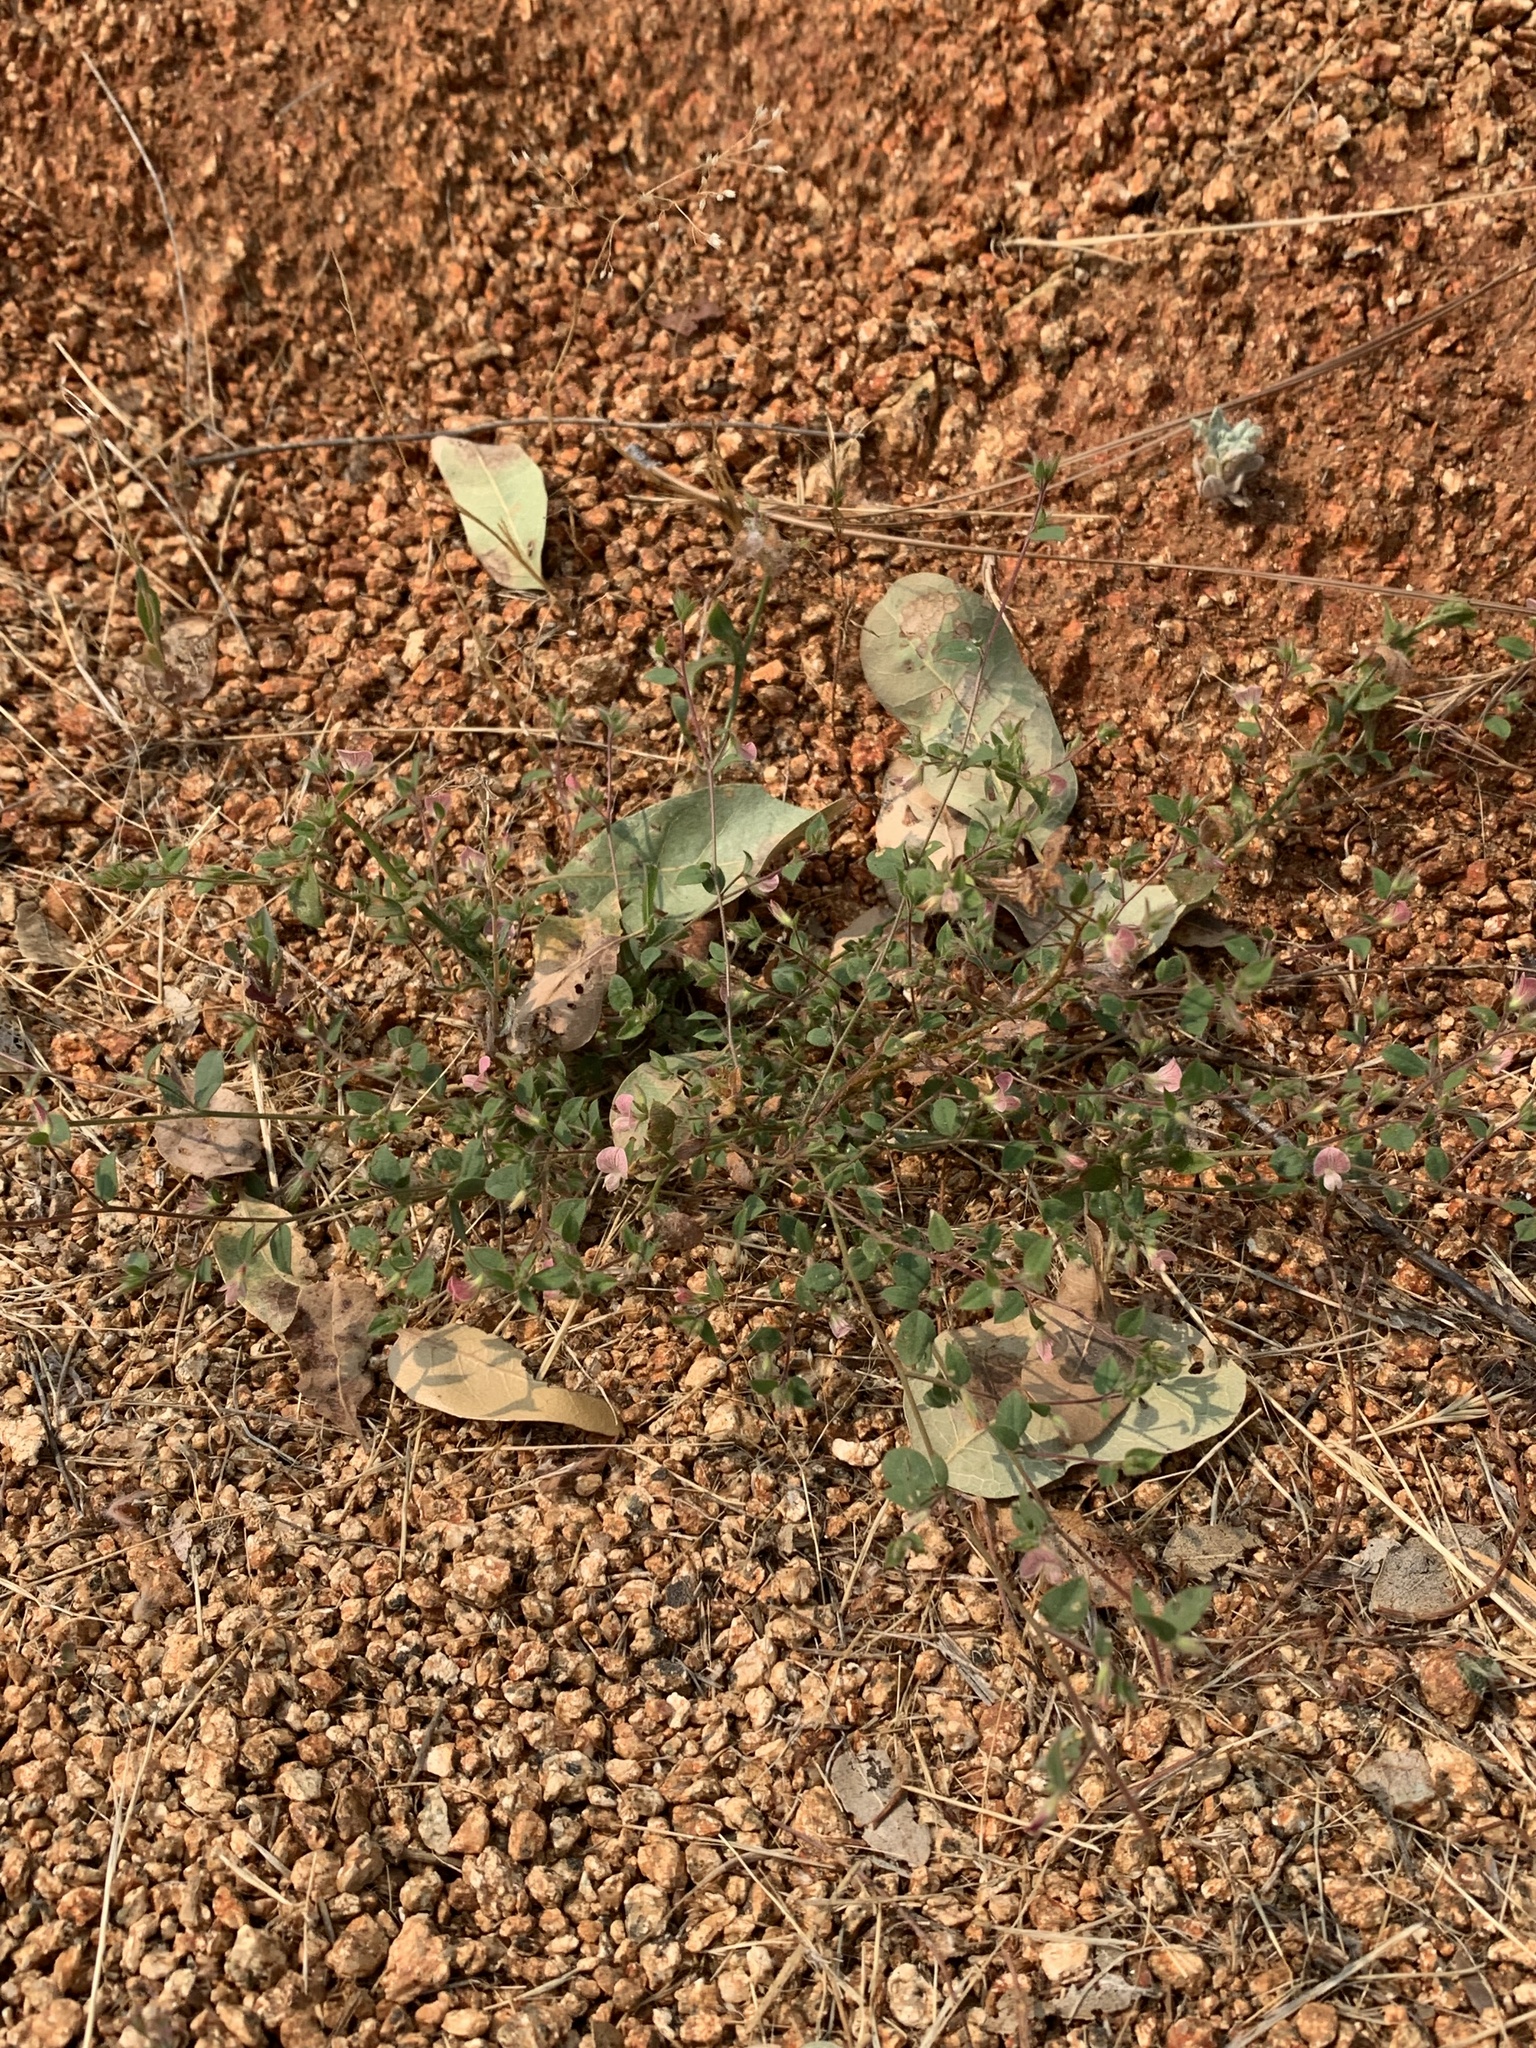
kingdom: Plantae
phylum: Tracheophyta
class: Magnoliopsida
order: Fabales
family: Fabaceae
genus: Acmispon
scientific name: Acmispon americanus
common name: American bird's-foot trefoil
